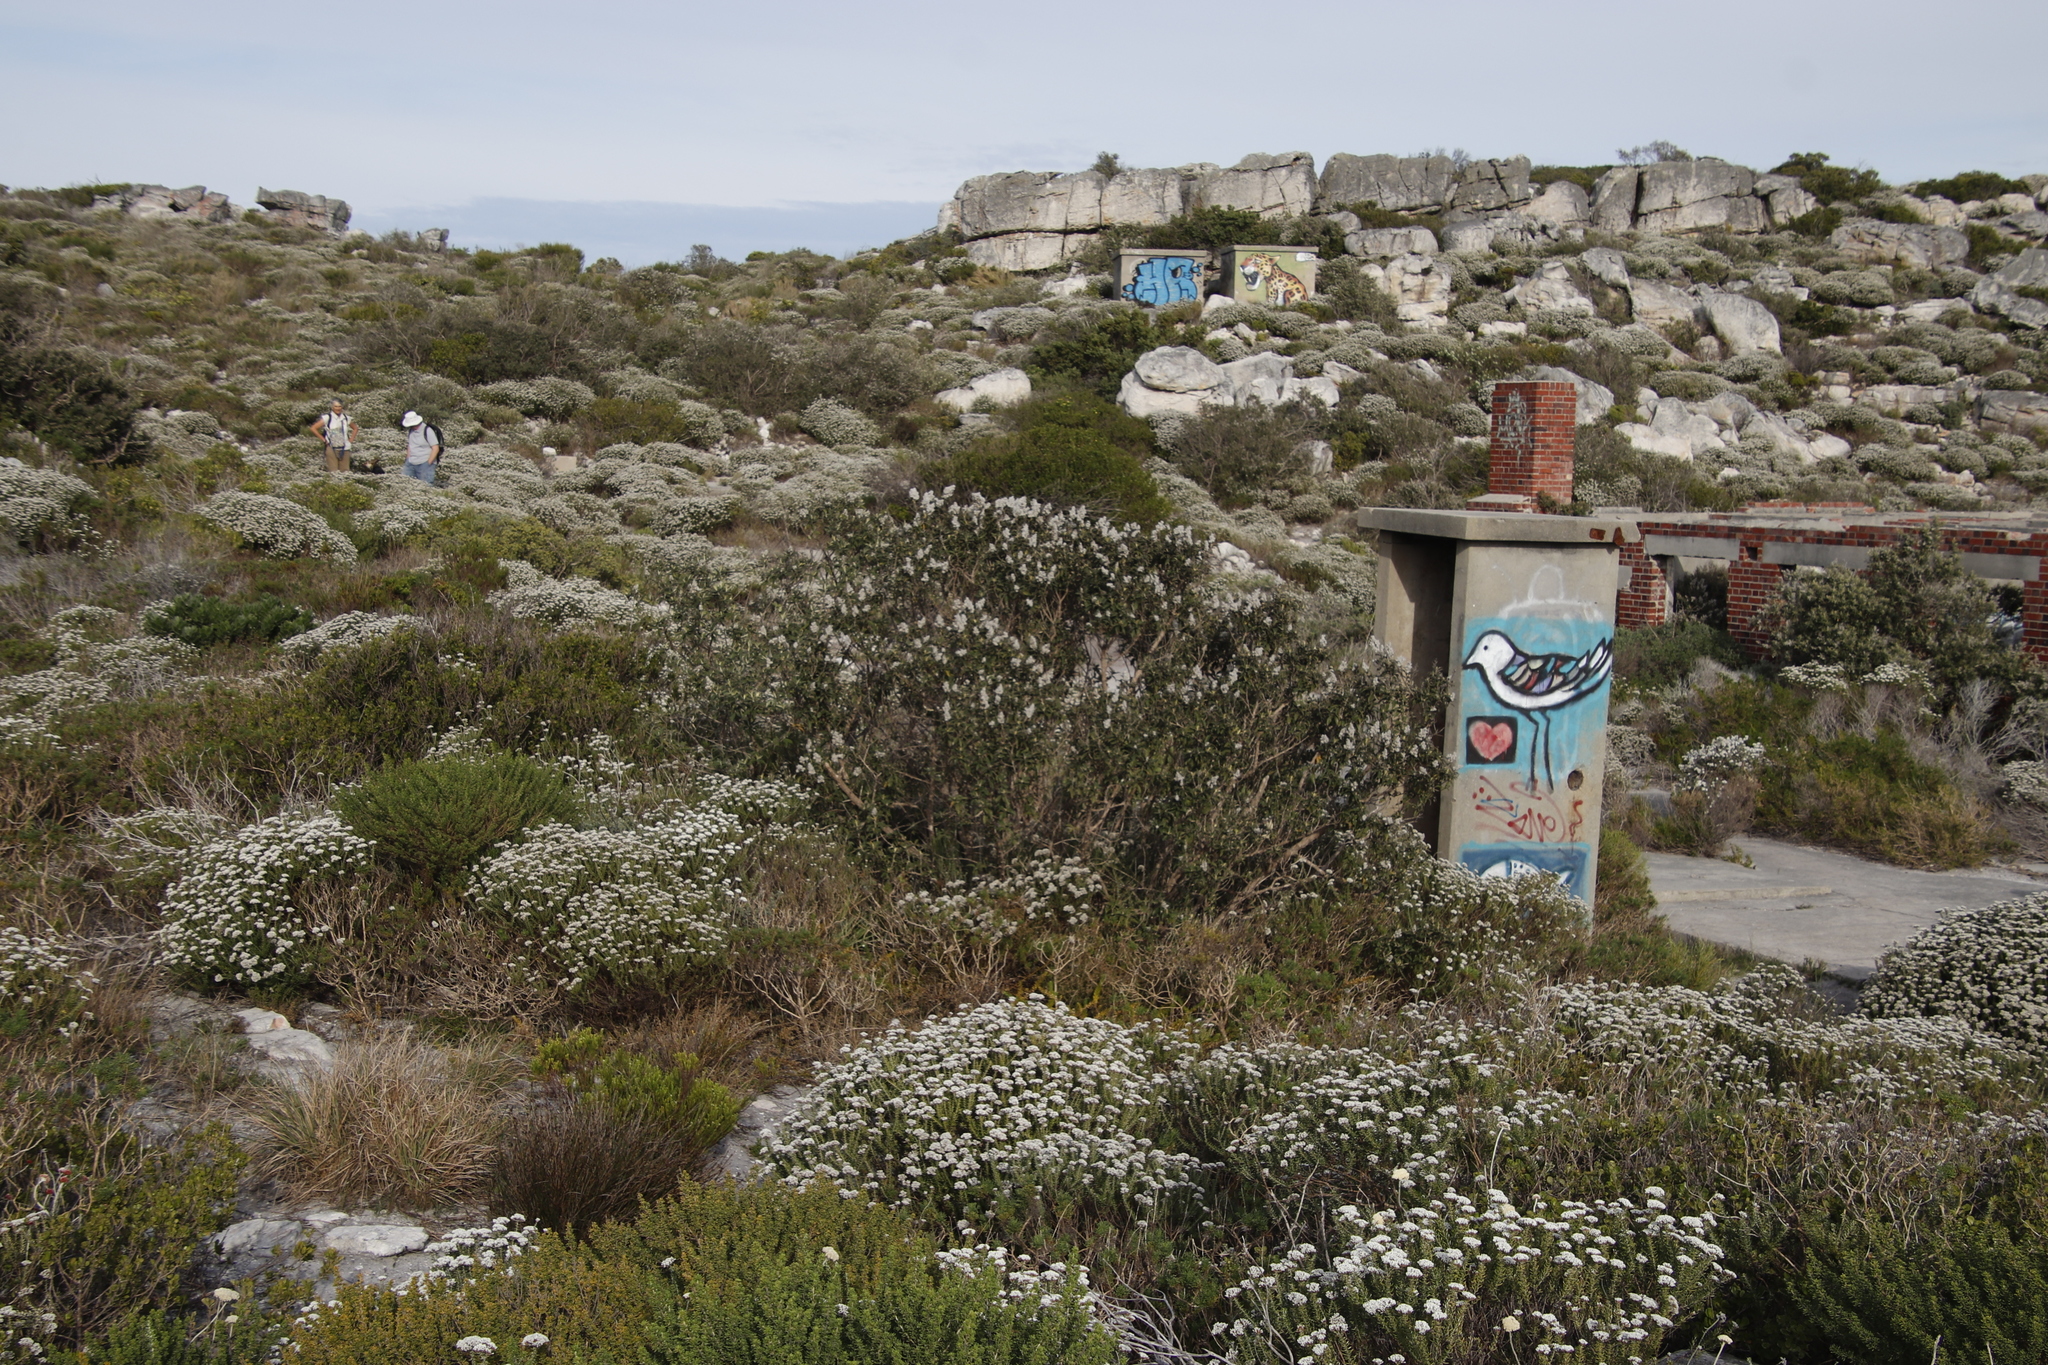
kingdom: Plantae
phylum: Tracheophyta
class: Magnoliopsida
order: Asterales
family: Asteraceae
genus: Tarchonanthus
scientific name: Tarchonanthus littoralis
